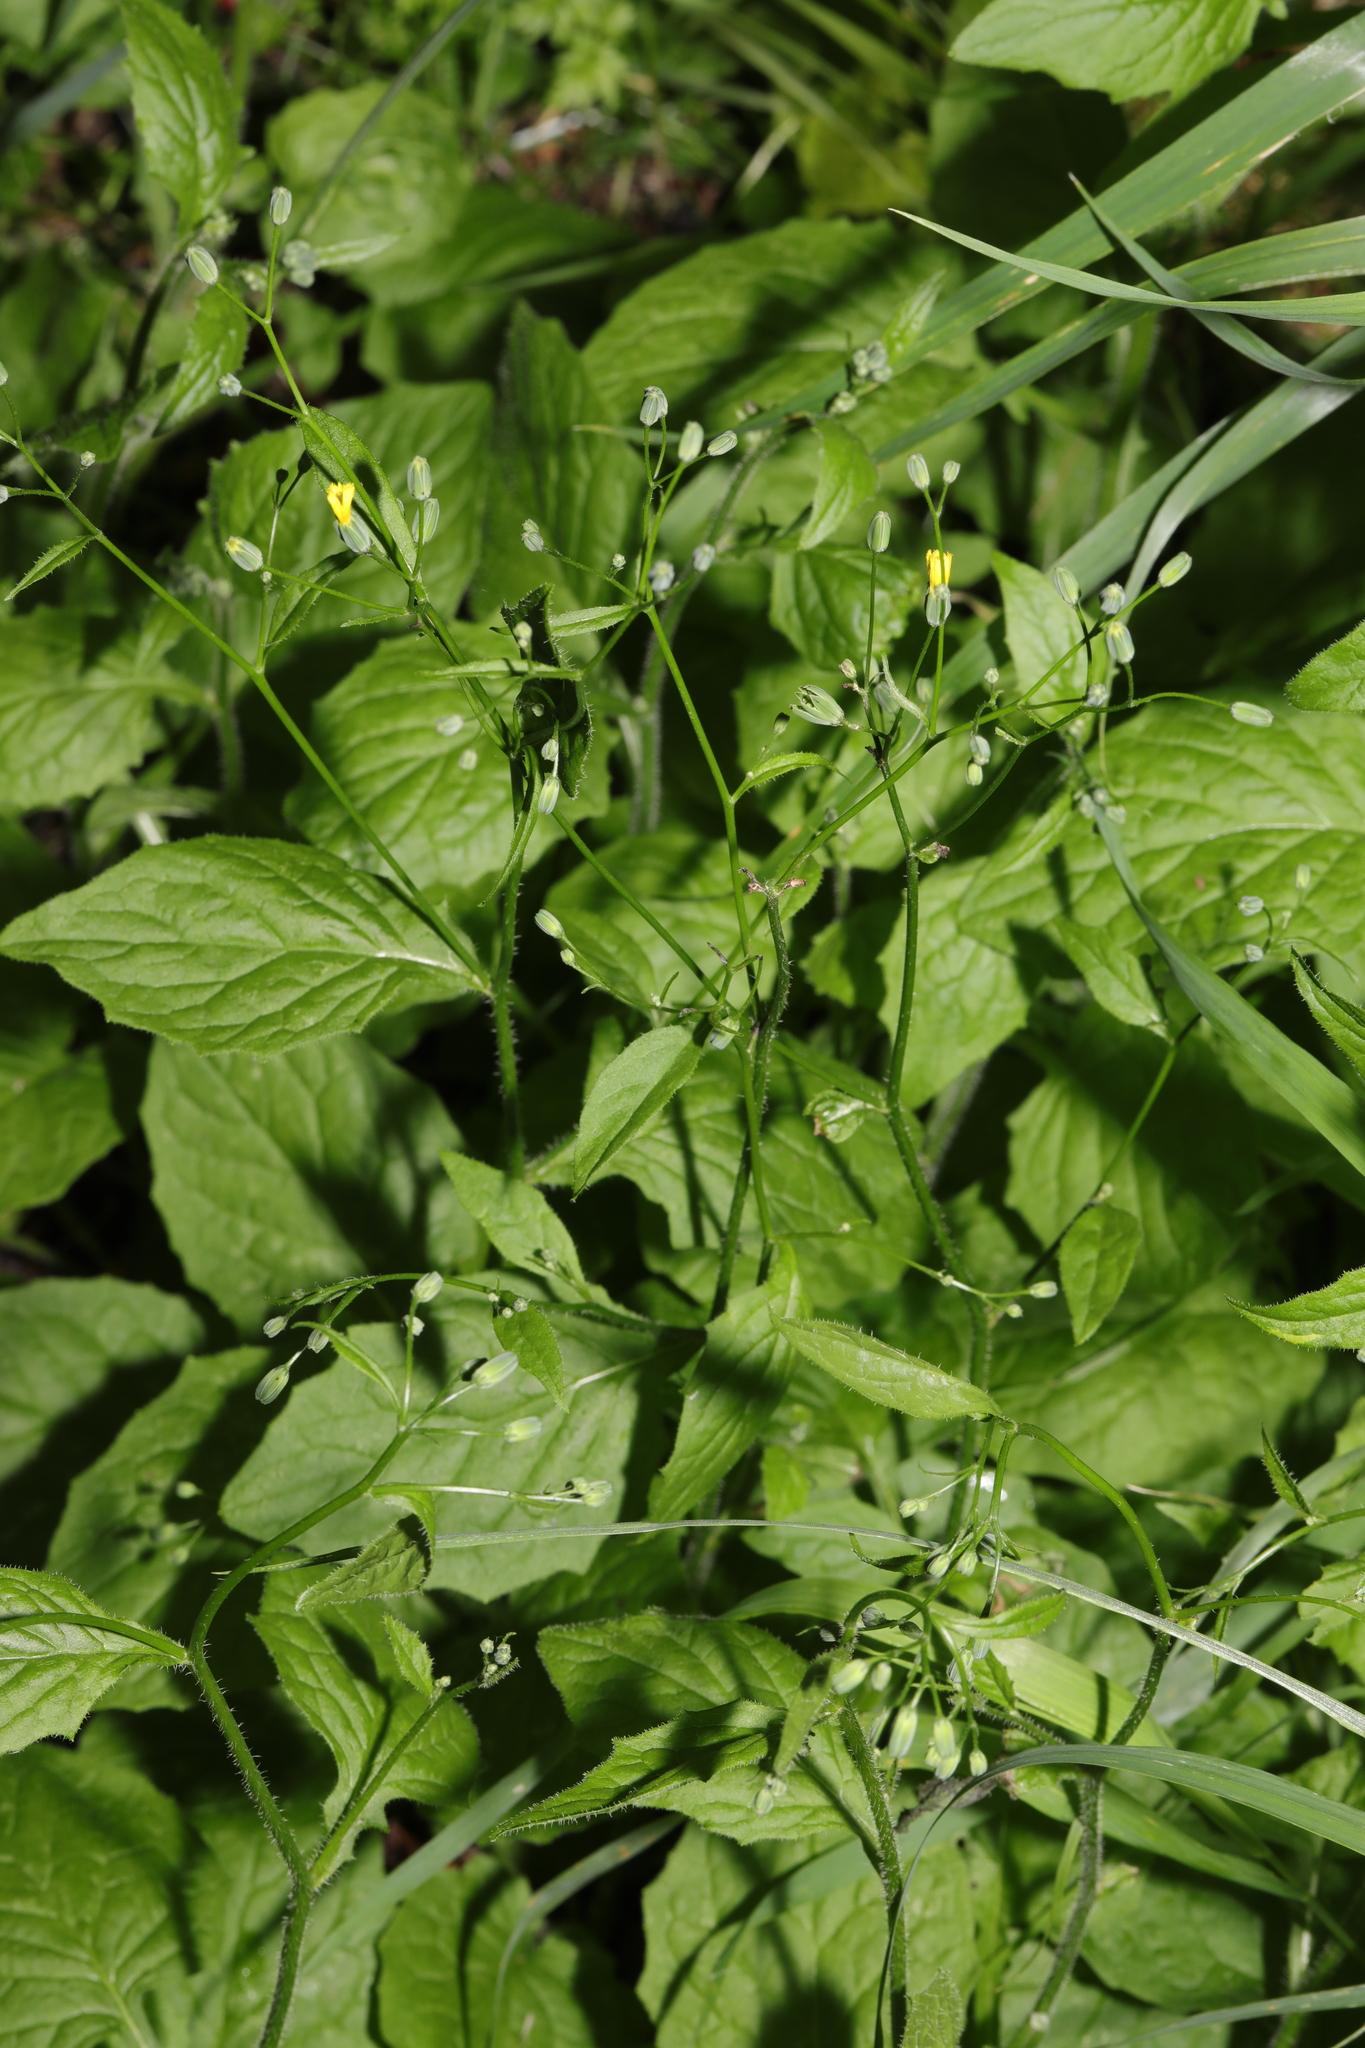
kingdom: Plantae
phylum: Tracheophyta
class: Magnoliopsida
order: Asterales
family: Asteraceae
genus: Lapsana
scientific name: Lapsana communis
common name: Nipplewort
